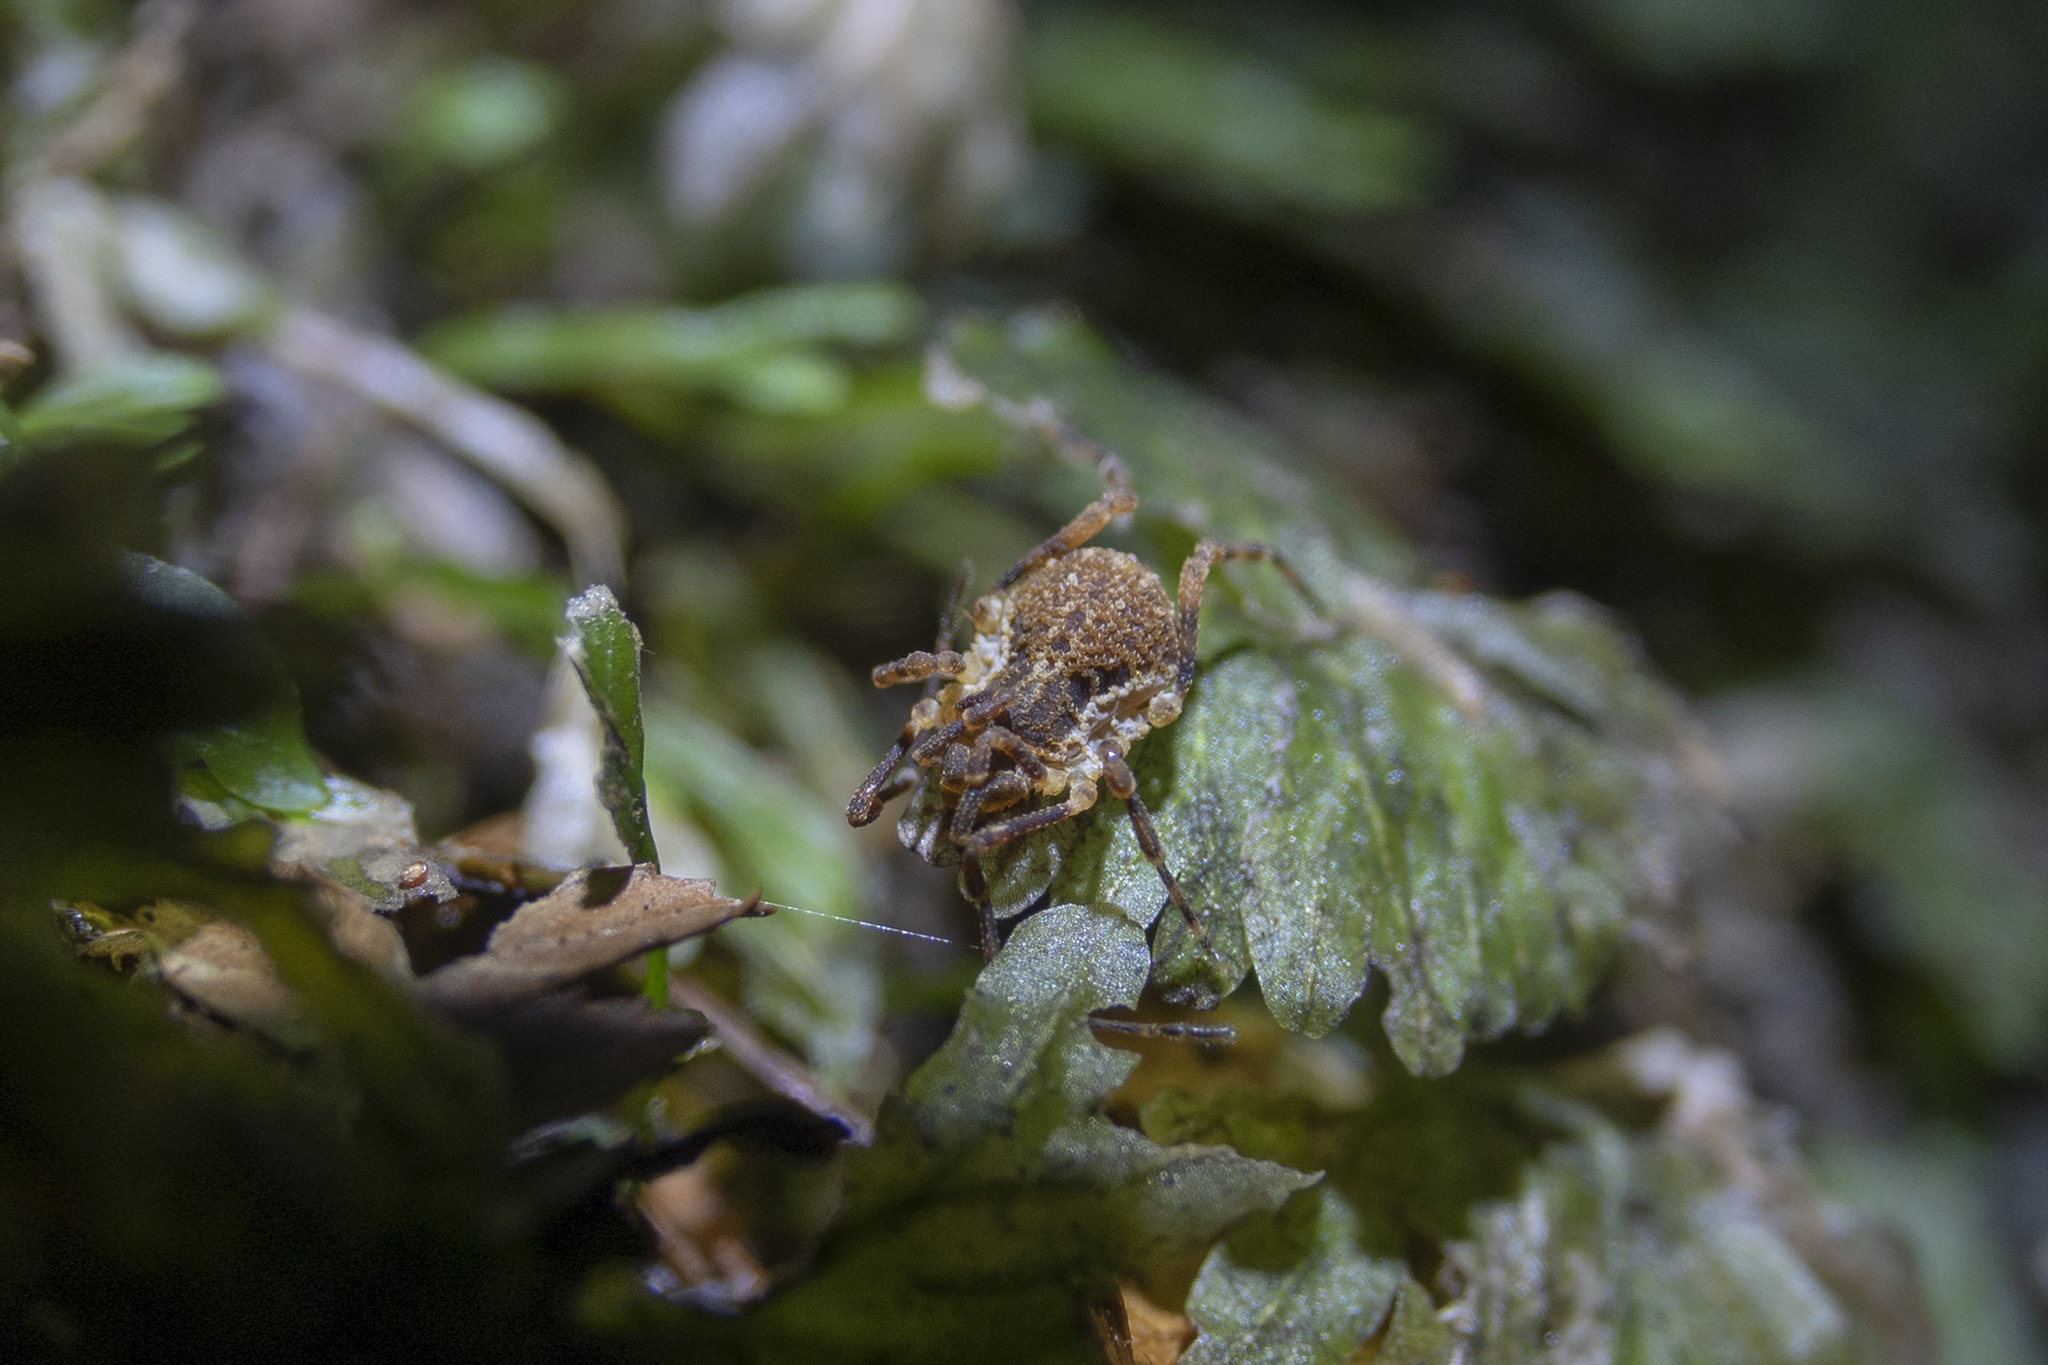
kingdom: Animalia
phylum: Arthropoda
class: Arachnida
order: Opiliones
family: Triaenonychidae
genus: Pristobunus
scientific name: Pristobunus acentrus
